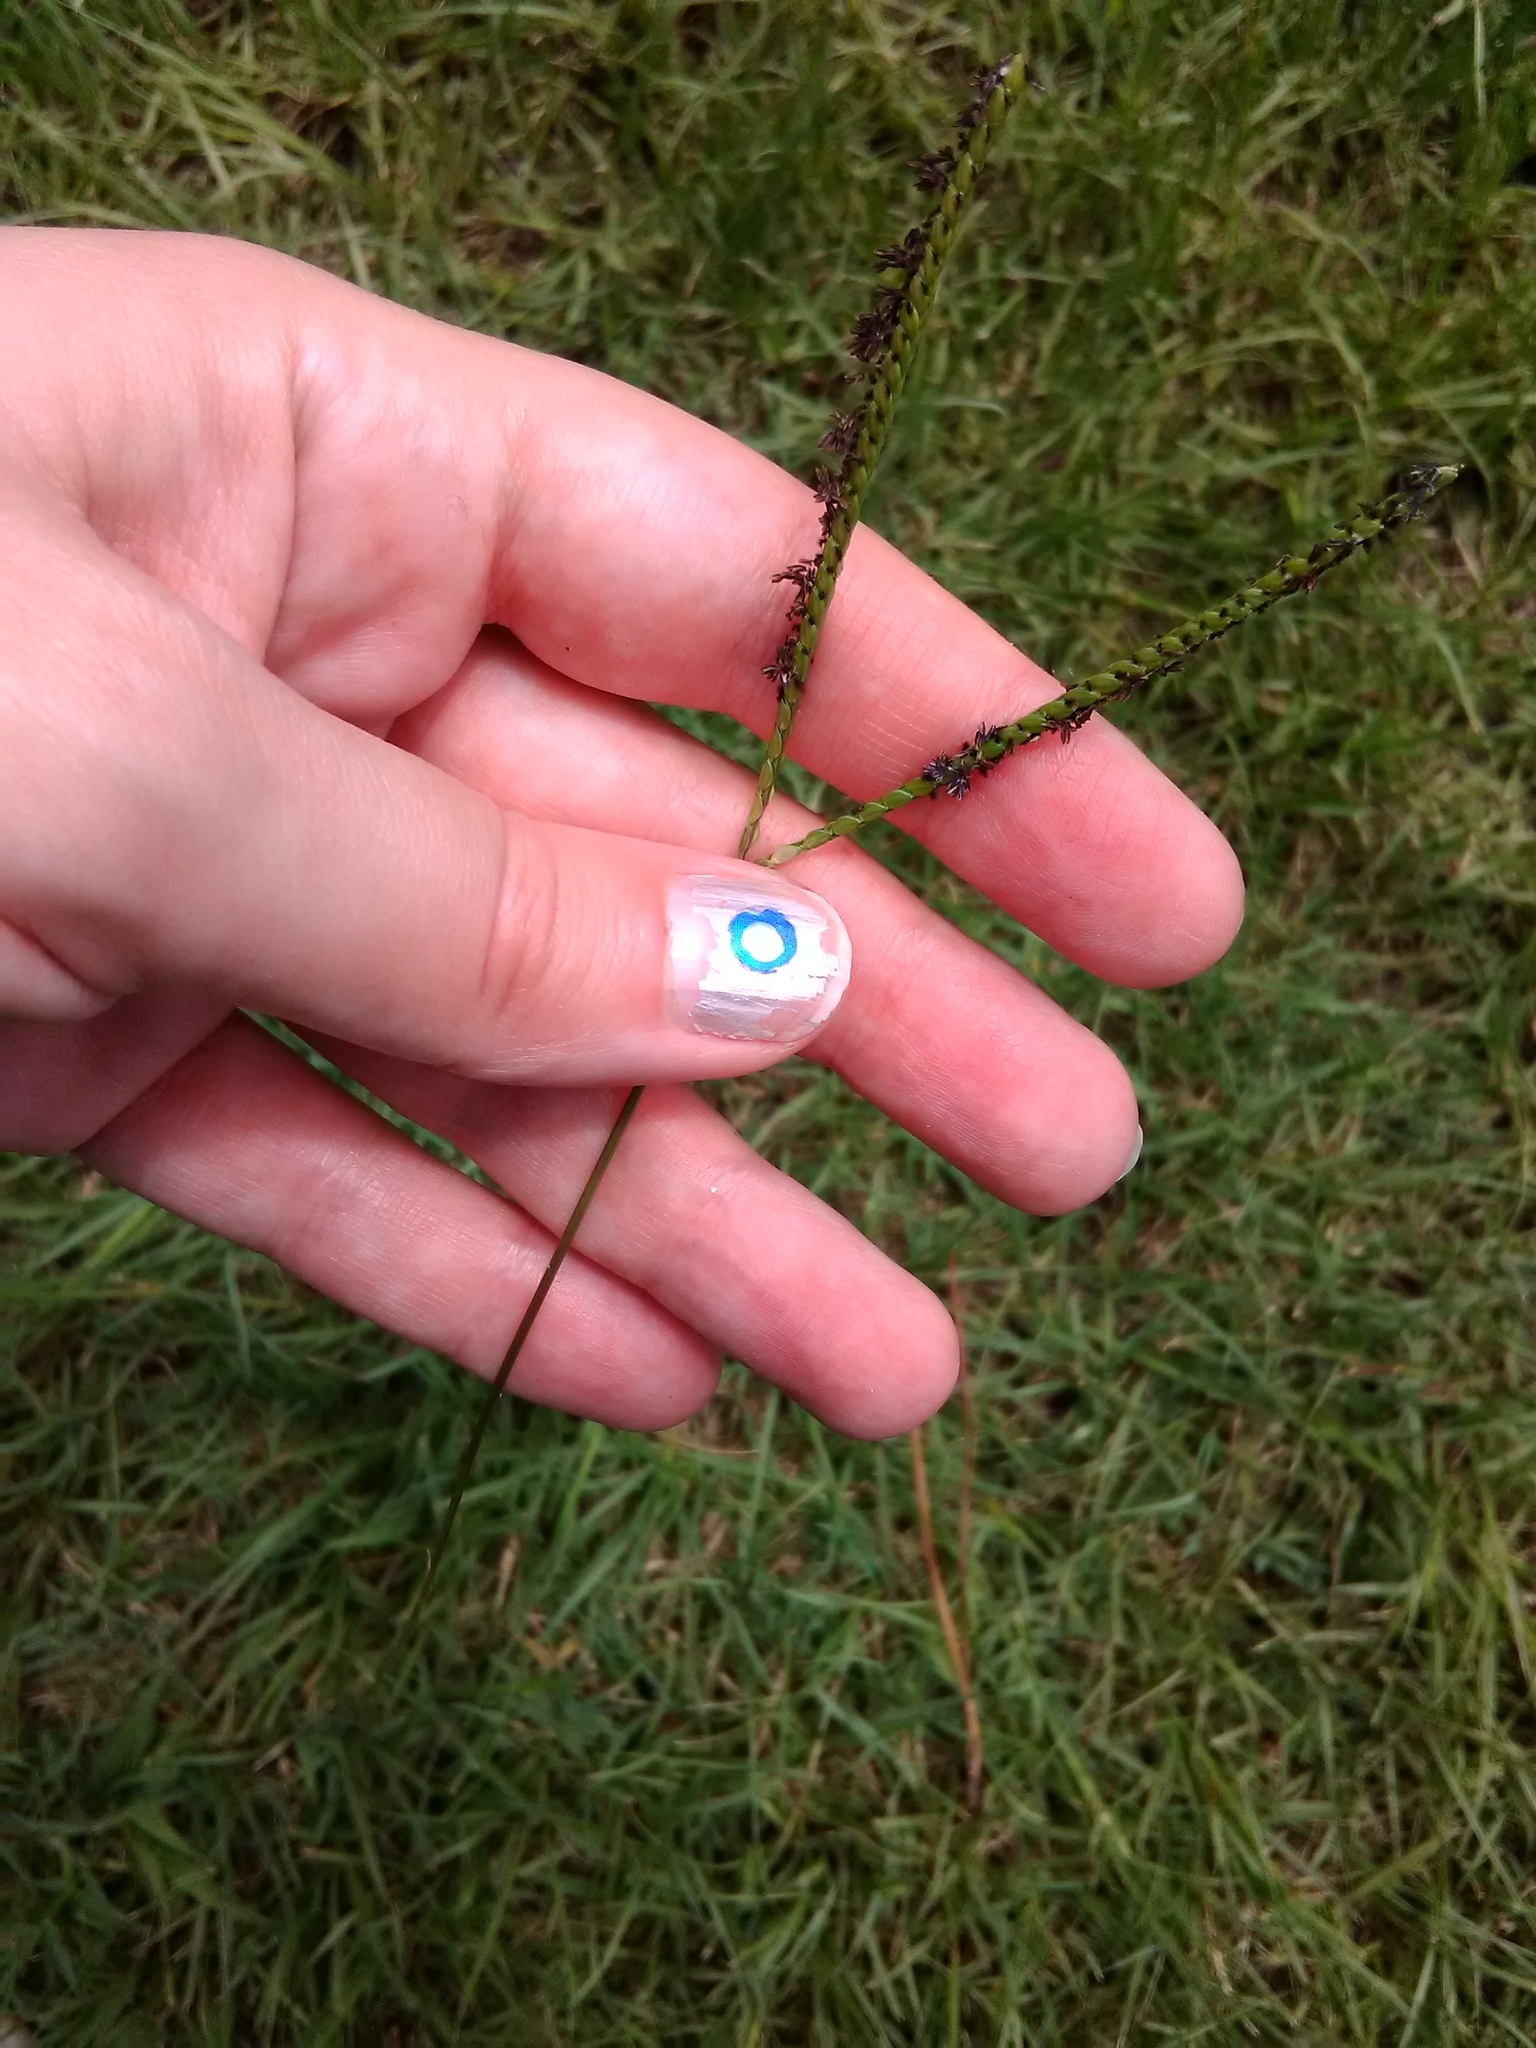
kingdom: Plantae
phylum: Tracheophyta
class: Liliopsida
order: Poales
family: Poaceae
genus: Paspalum
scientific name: Paspalum notatum
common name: Bahiagrass
